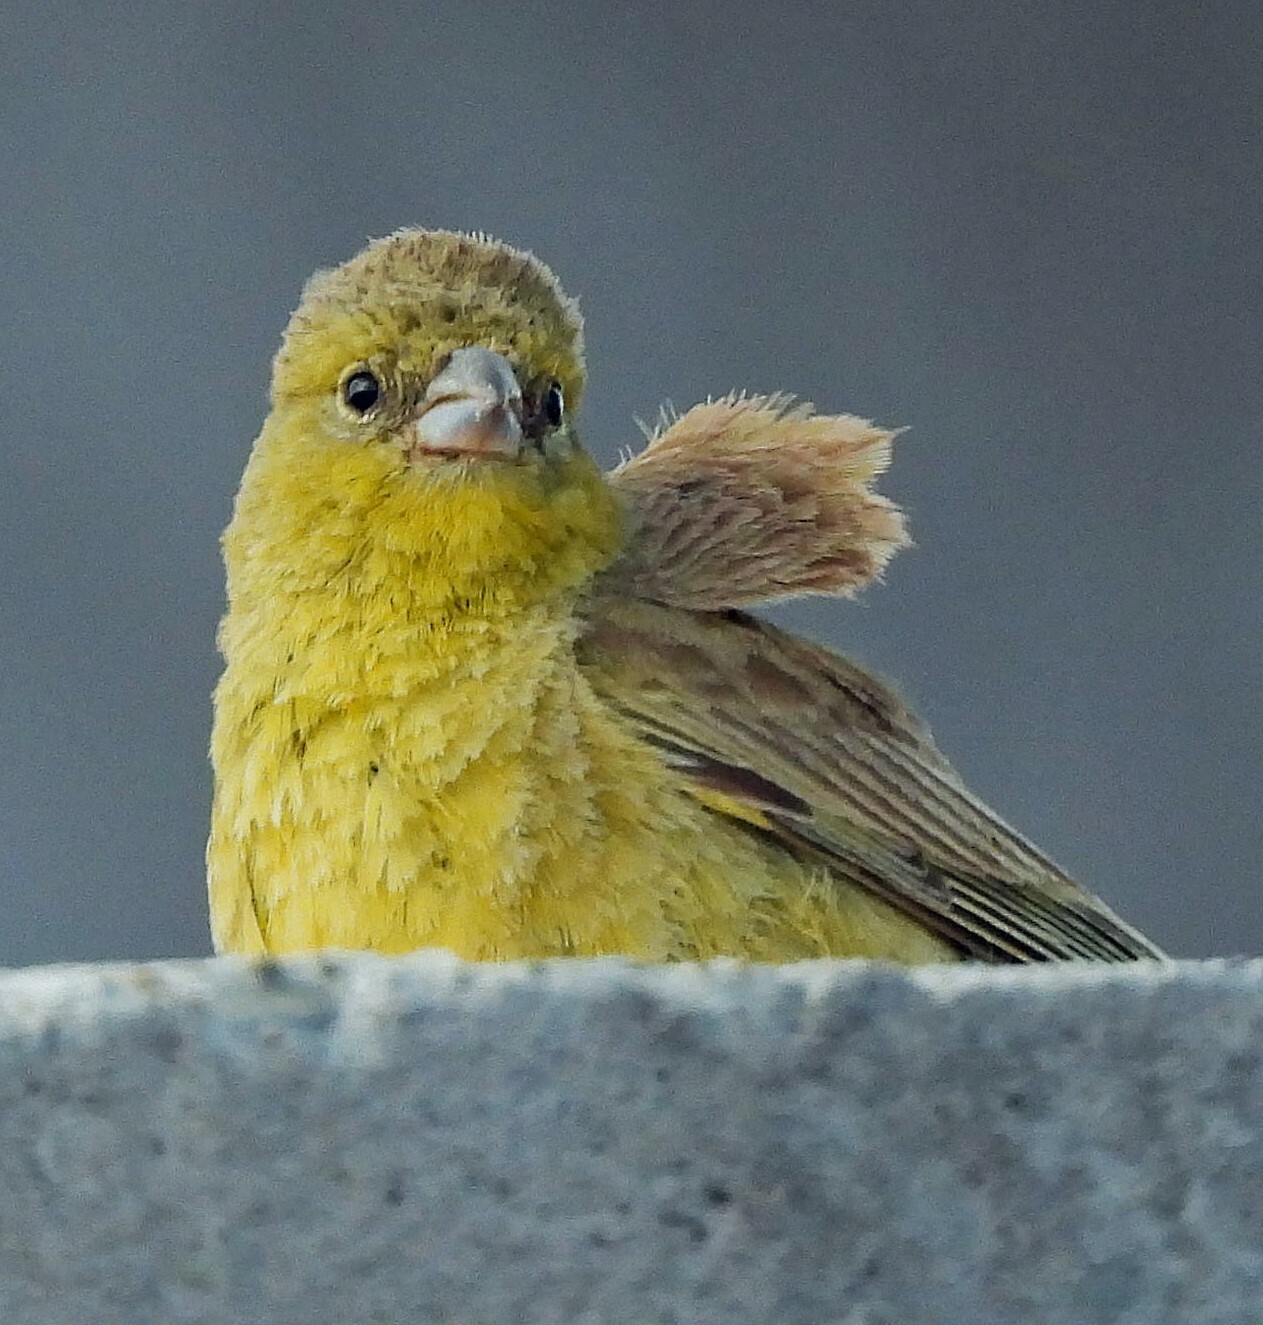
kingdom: Animalia
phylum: Chordata
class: Aves
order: Passeriformes
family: Thraupidae
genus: Sicalis
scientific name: Sicalis olivascens
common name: Greenish yellow finch
